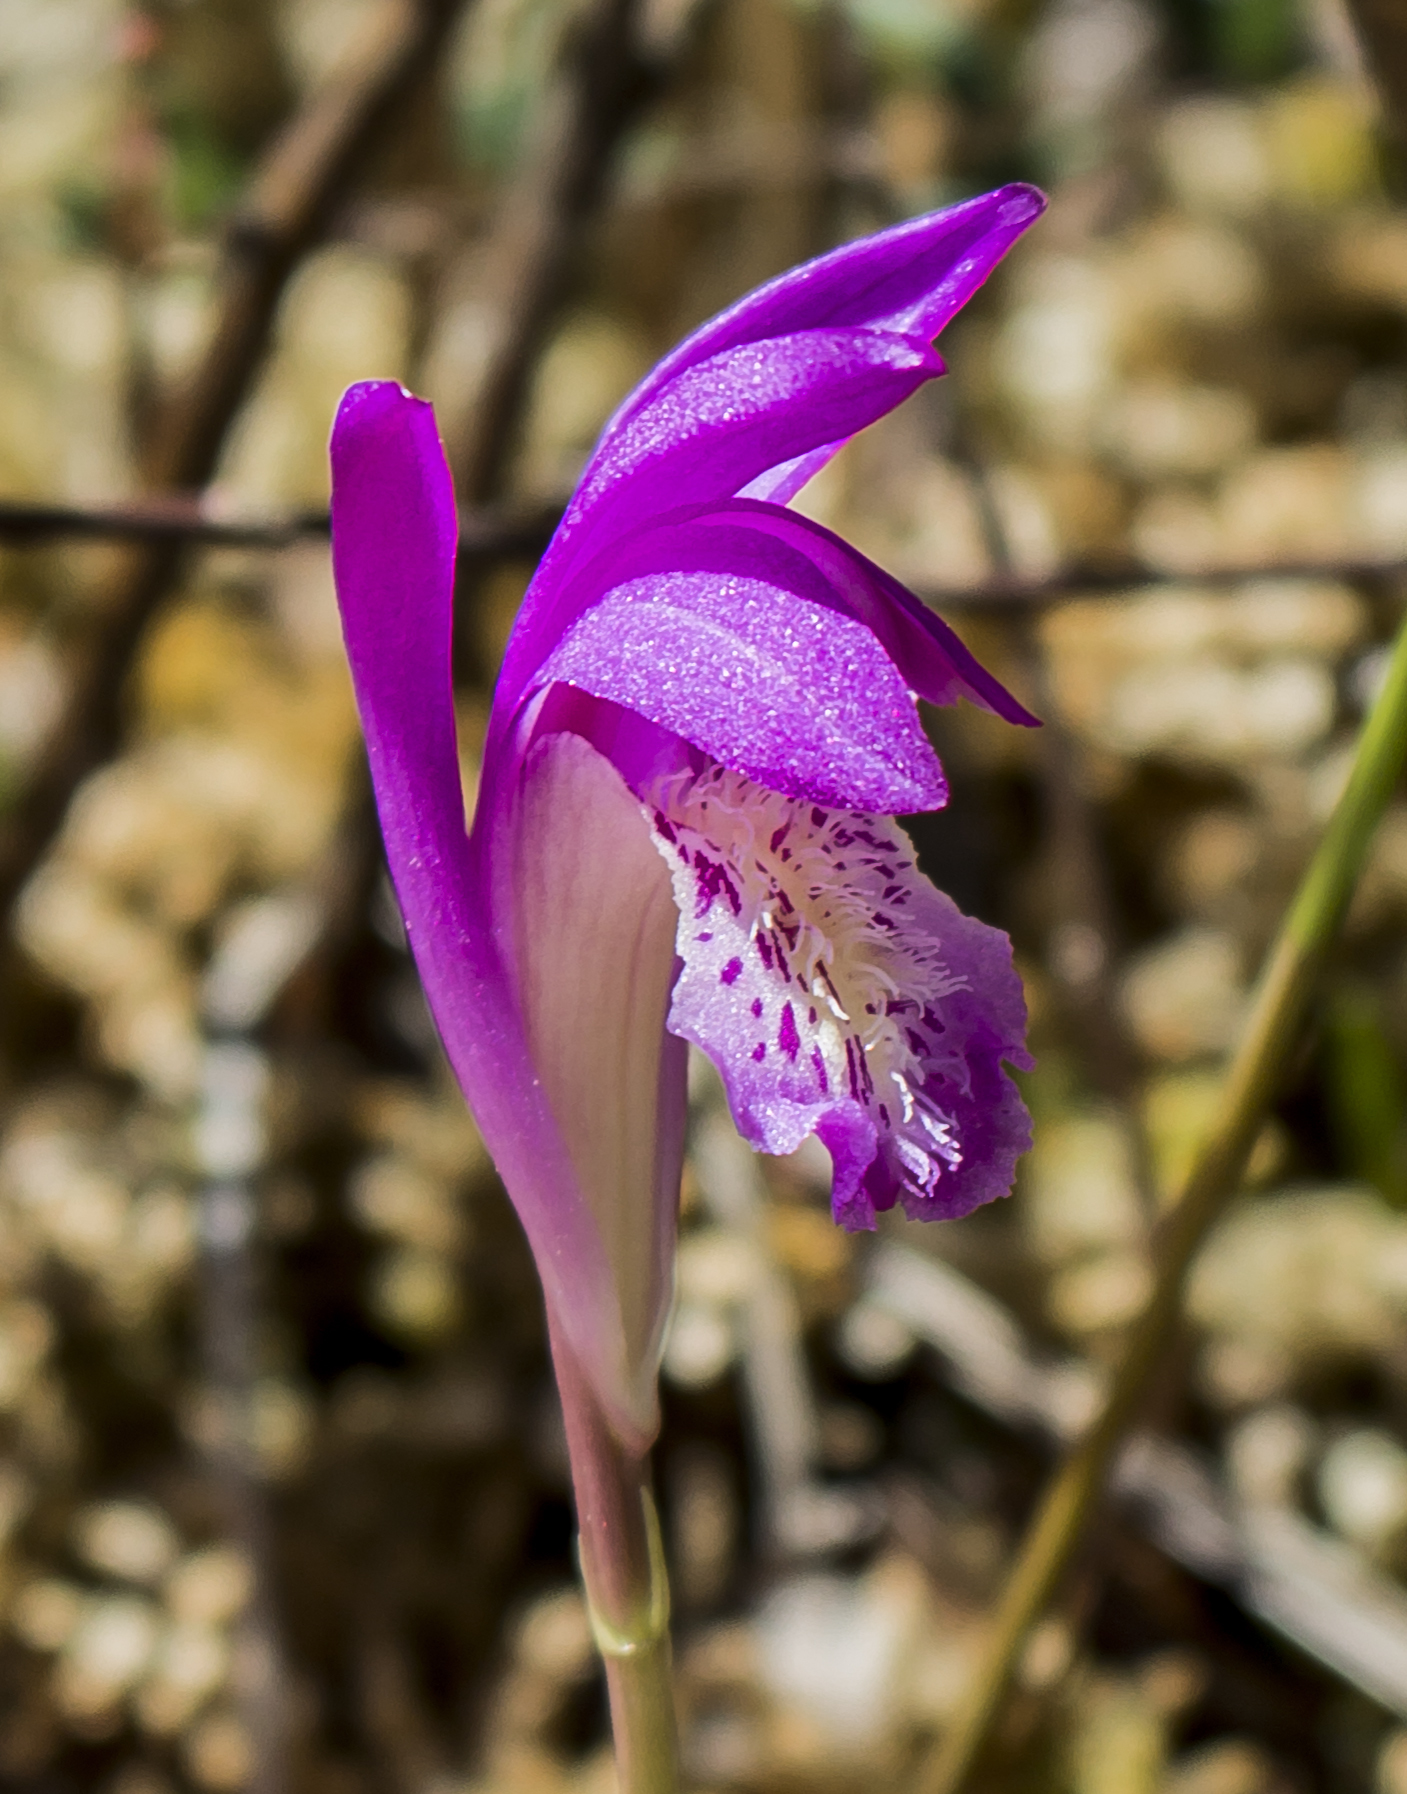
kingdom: Plantae
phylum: Tracheophyta
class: Liliopsida
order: Asparagales
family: Orchidaceae
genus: Arethusa
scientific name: Arethusa bulbosa
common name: Arethusa
